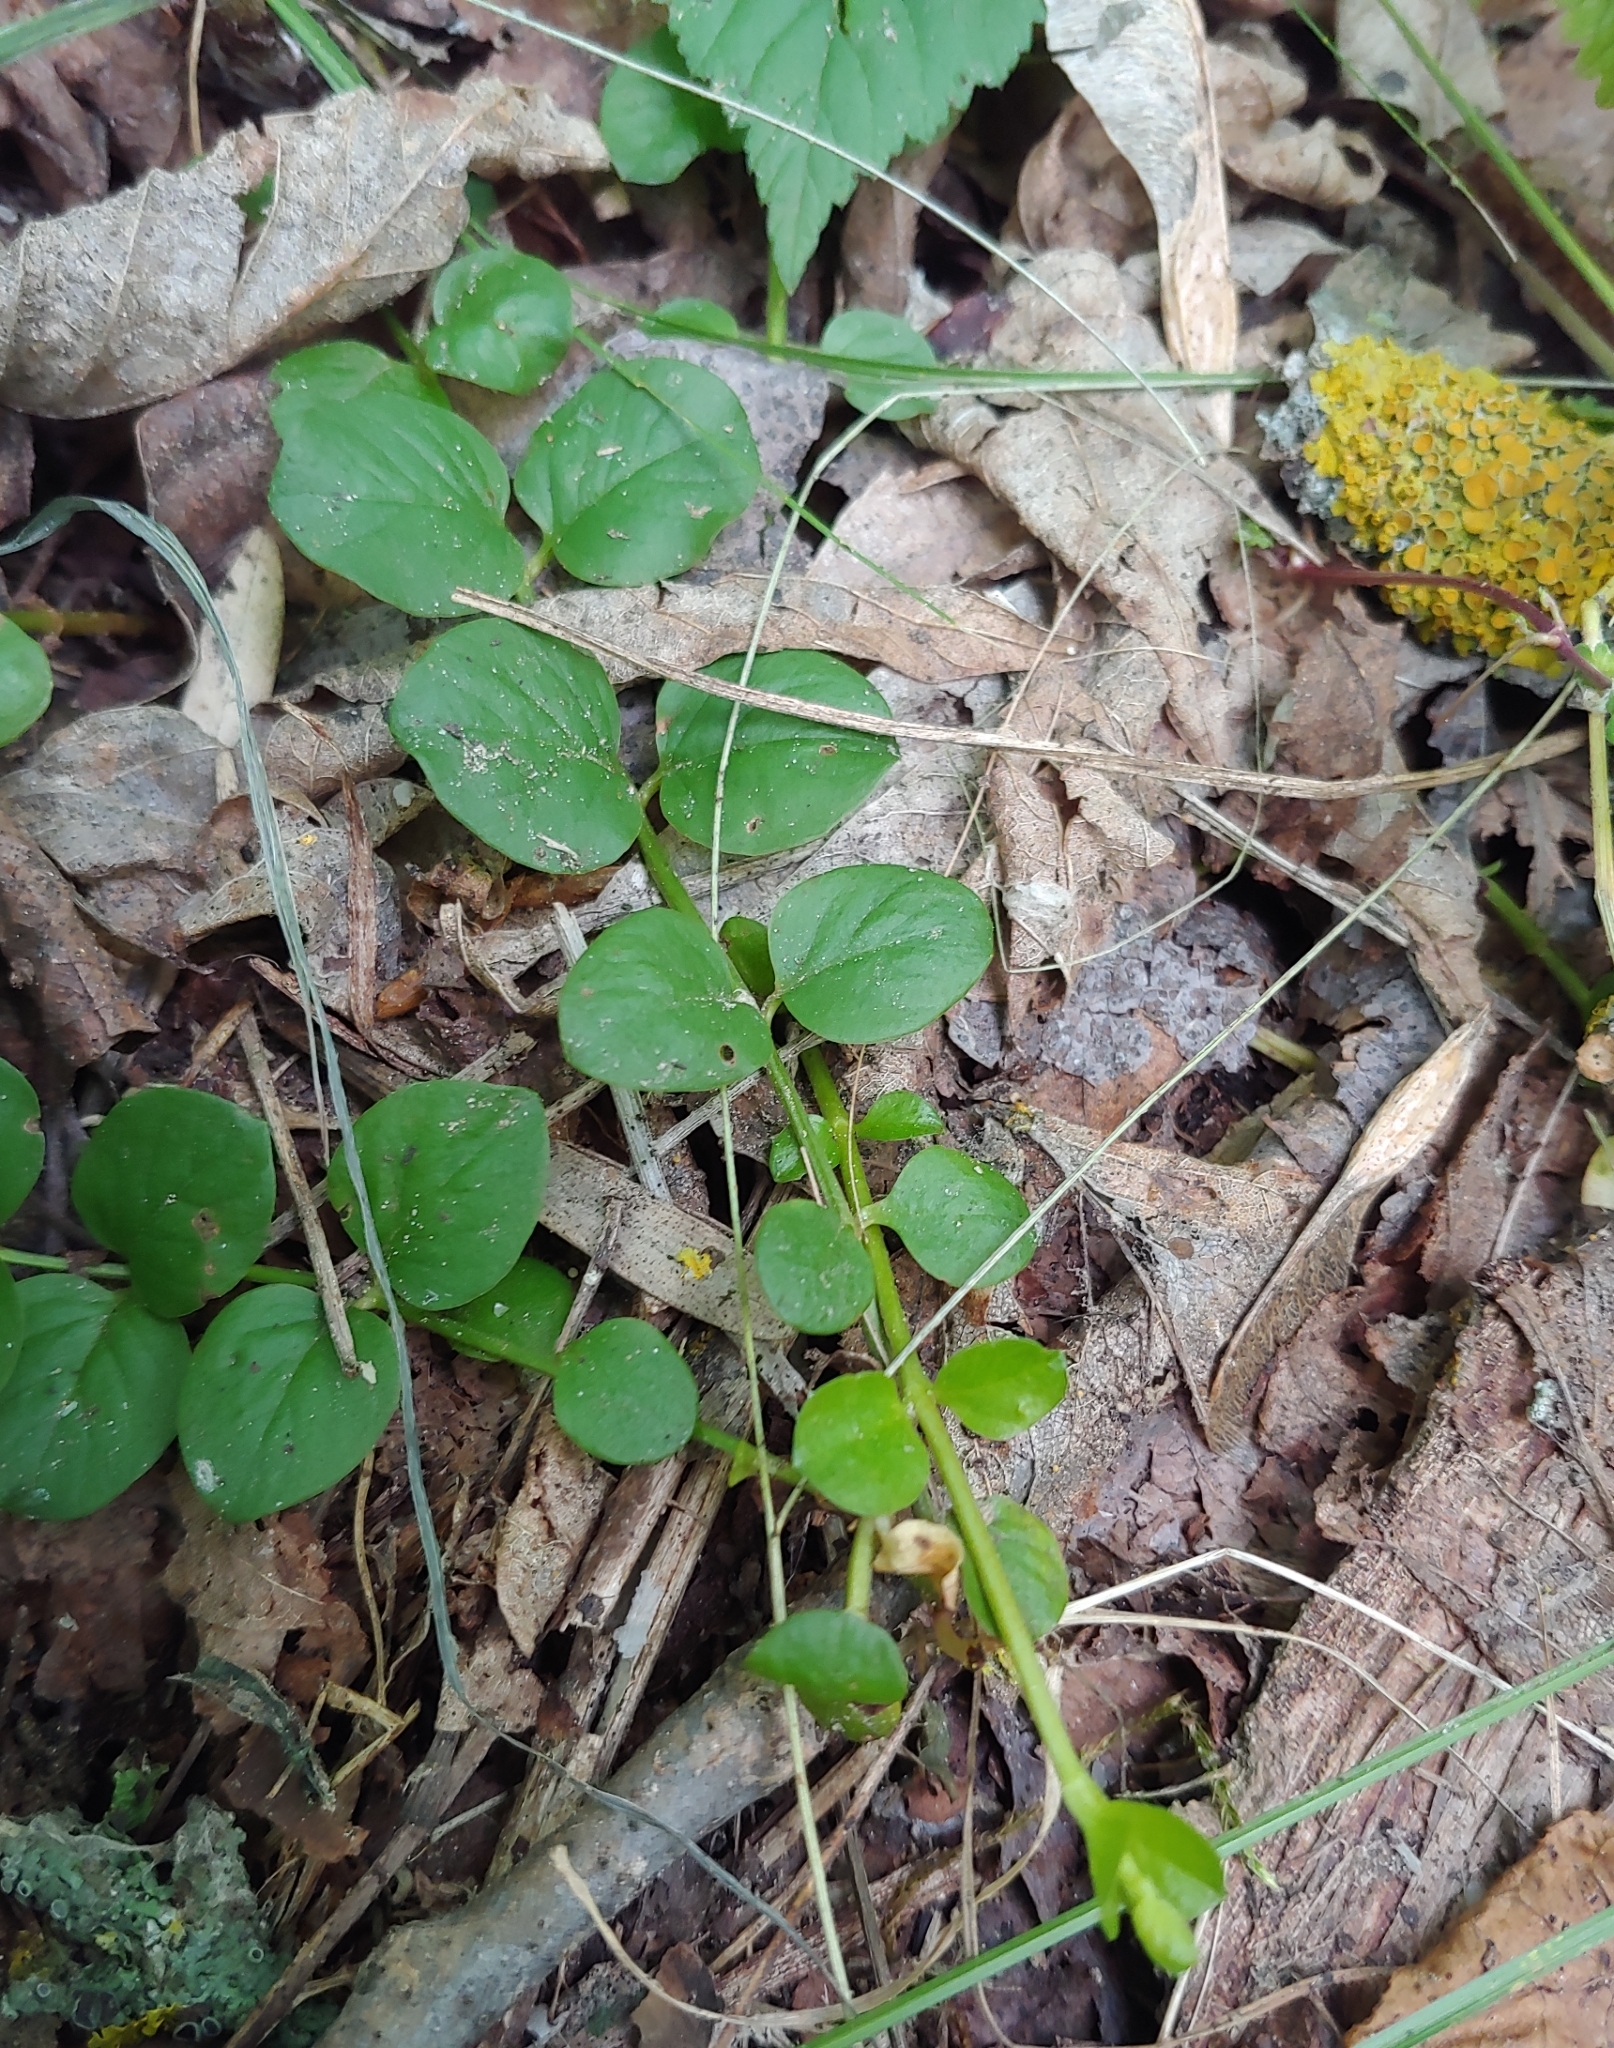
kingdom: Plantae
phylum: Tracheophyta
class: Magnoliopsida
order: Ericales
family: Primulaceae
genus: Lysimachia
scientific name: Lysimachia nummularia
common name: Moneywort
